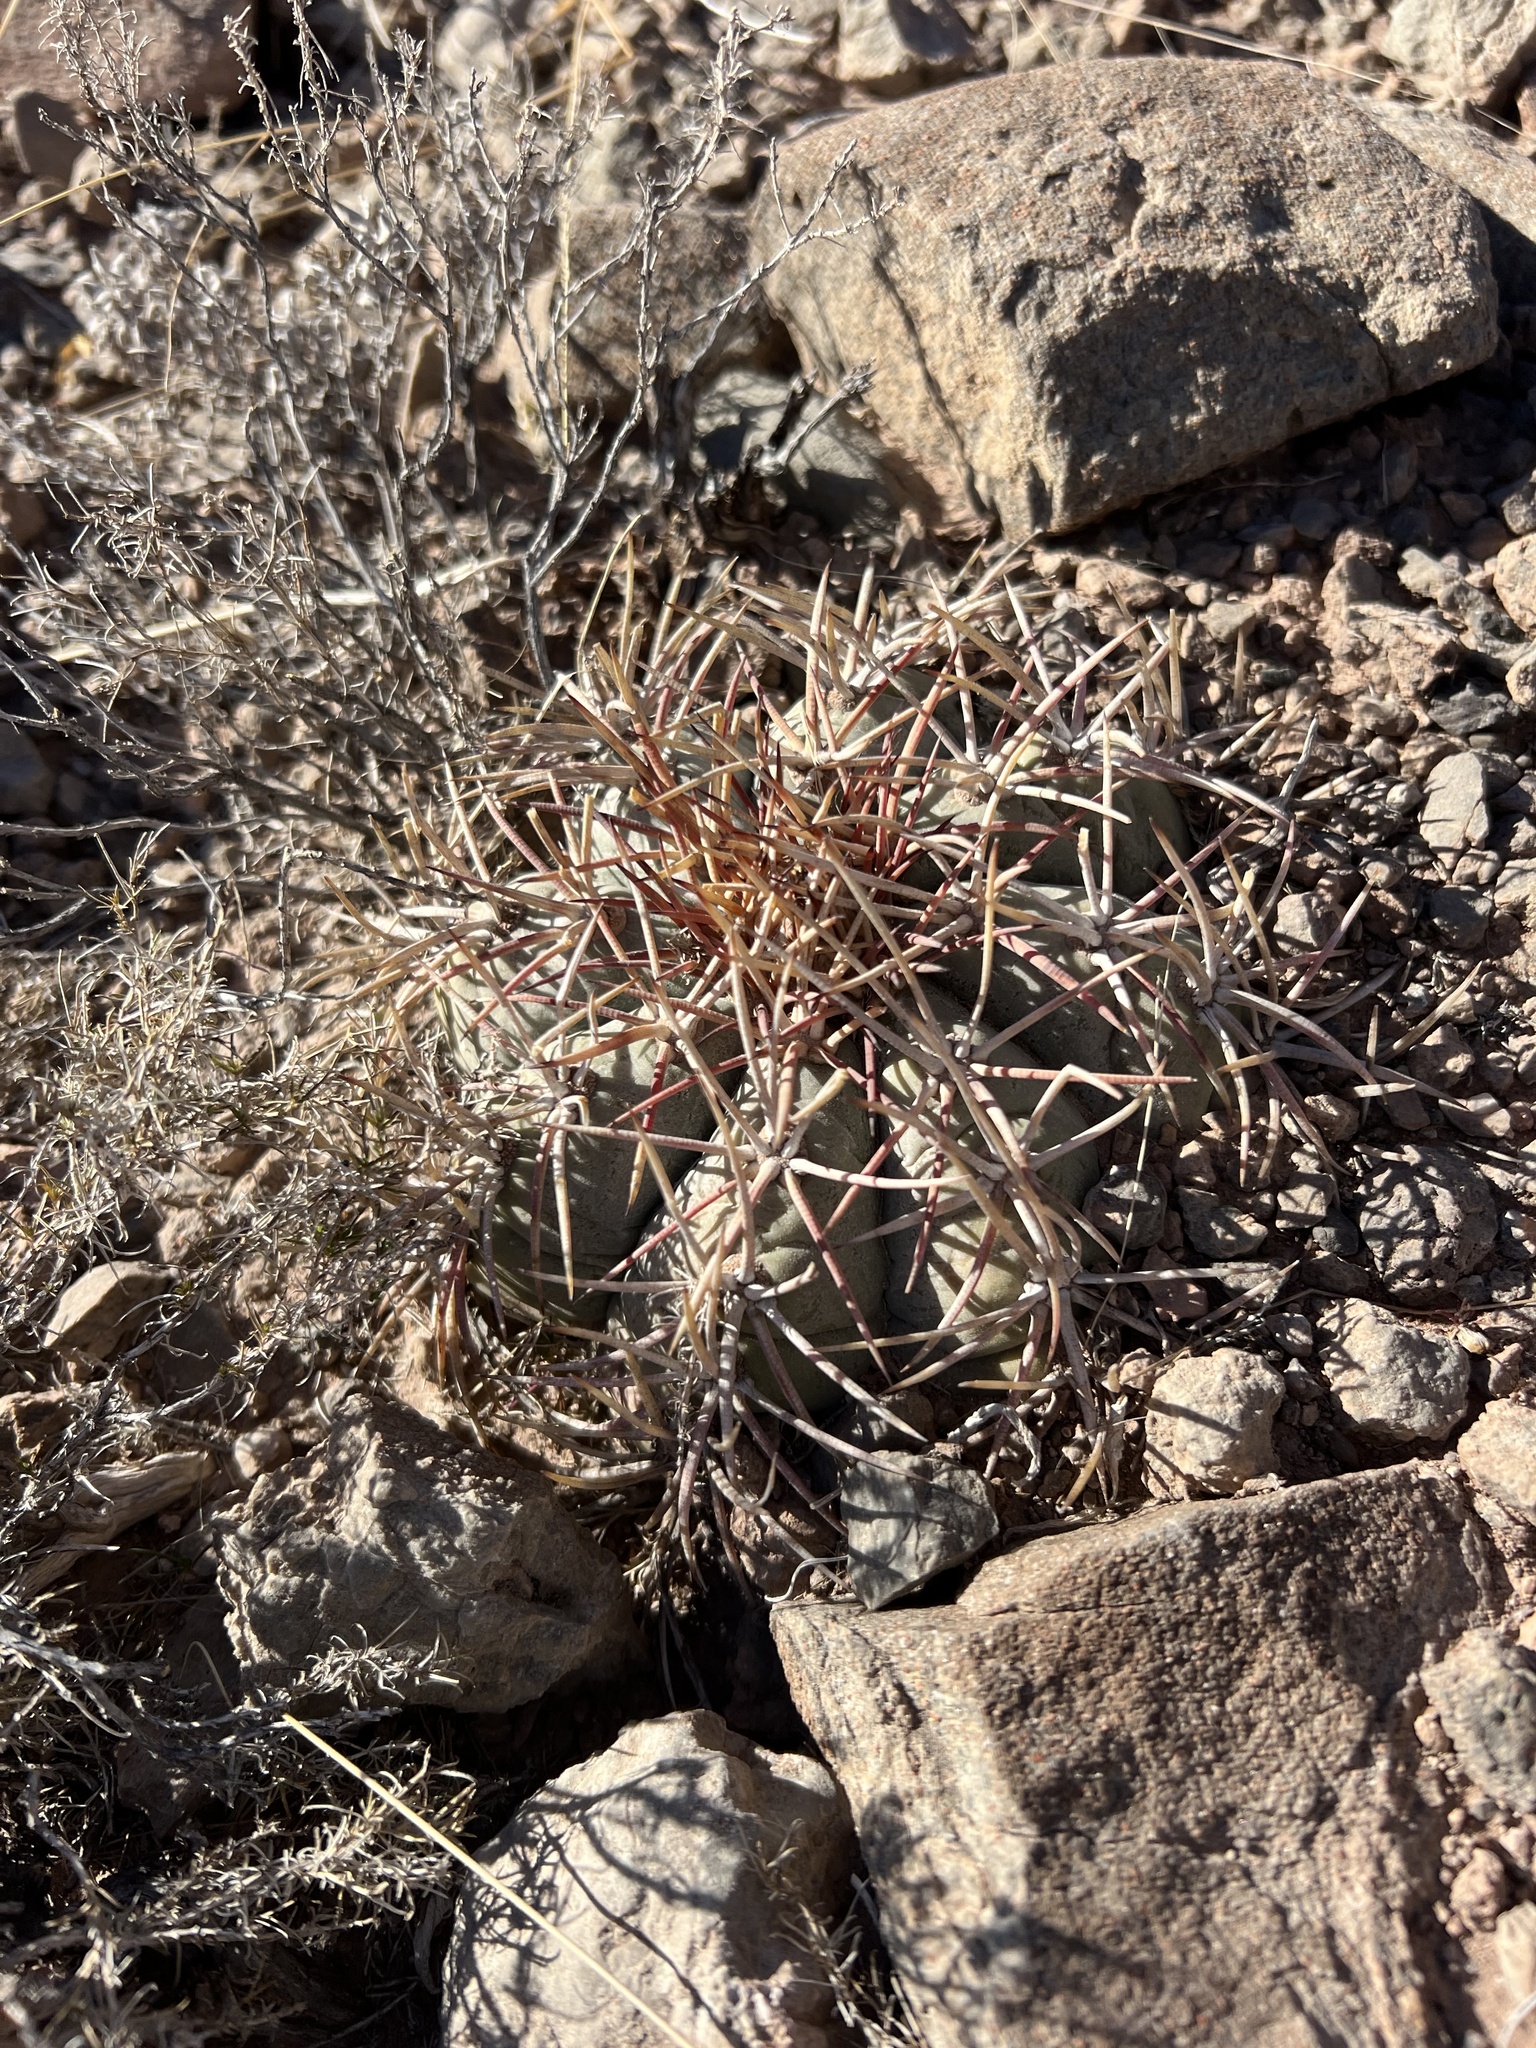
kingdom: Plantae
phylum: Tracheophyta
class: Magnoliopsida
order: Caryophyllales
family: Cactaceae
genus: Echinocactus
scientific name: Echinocactus horizonthalonius
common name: Devilshead
